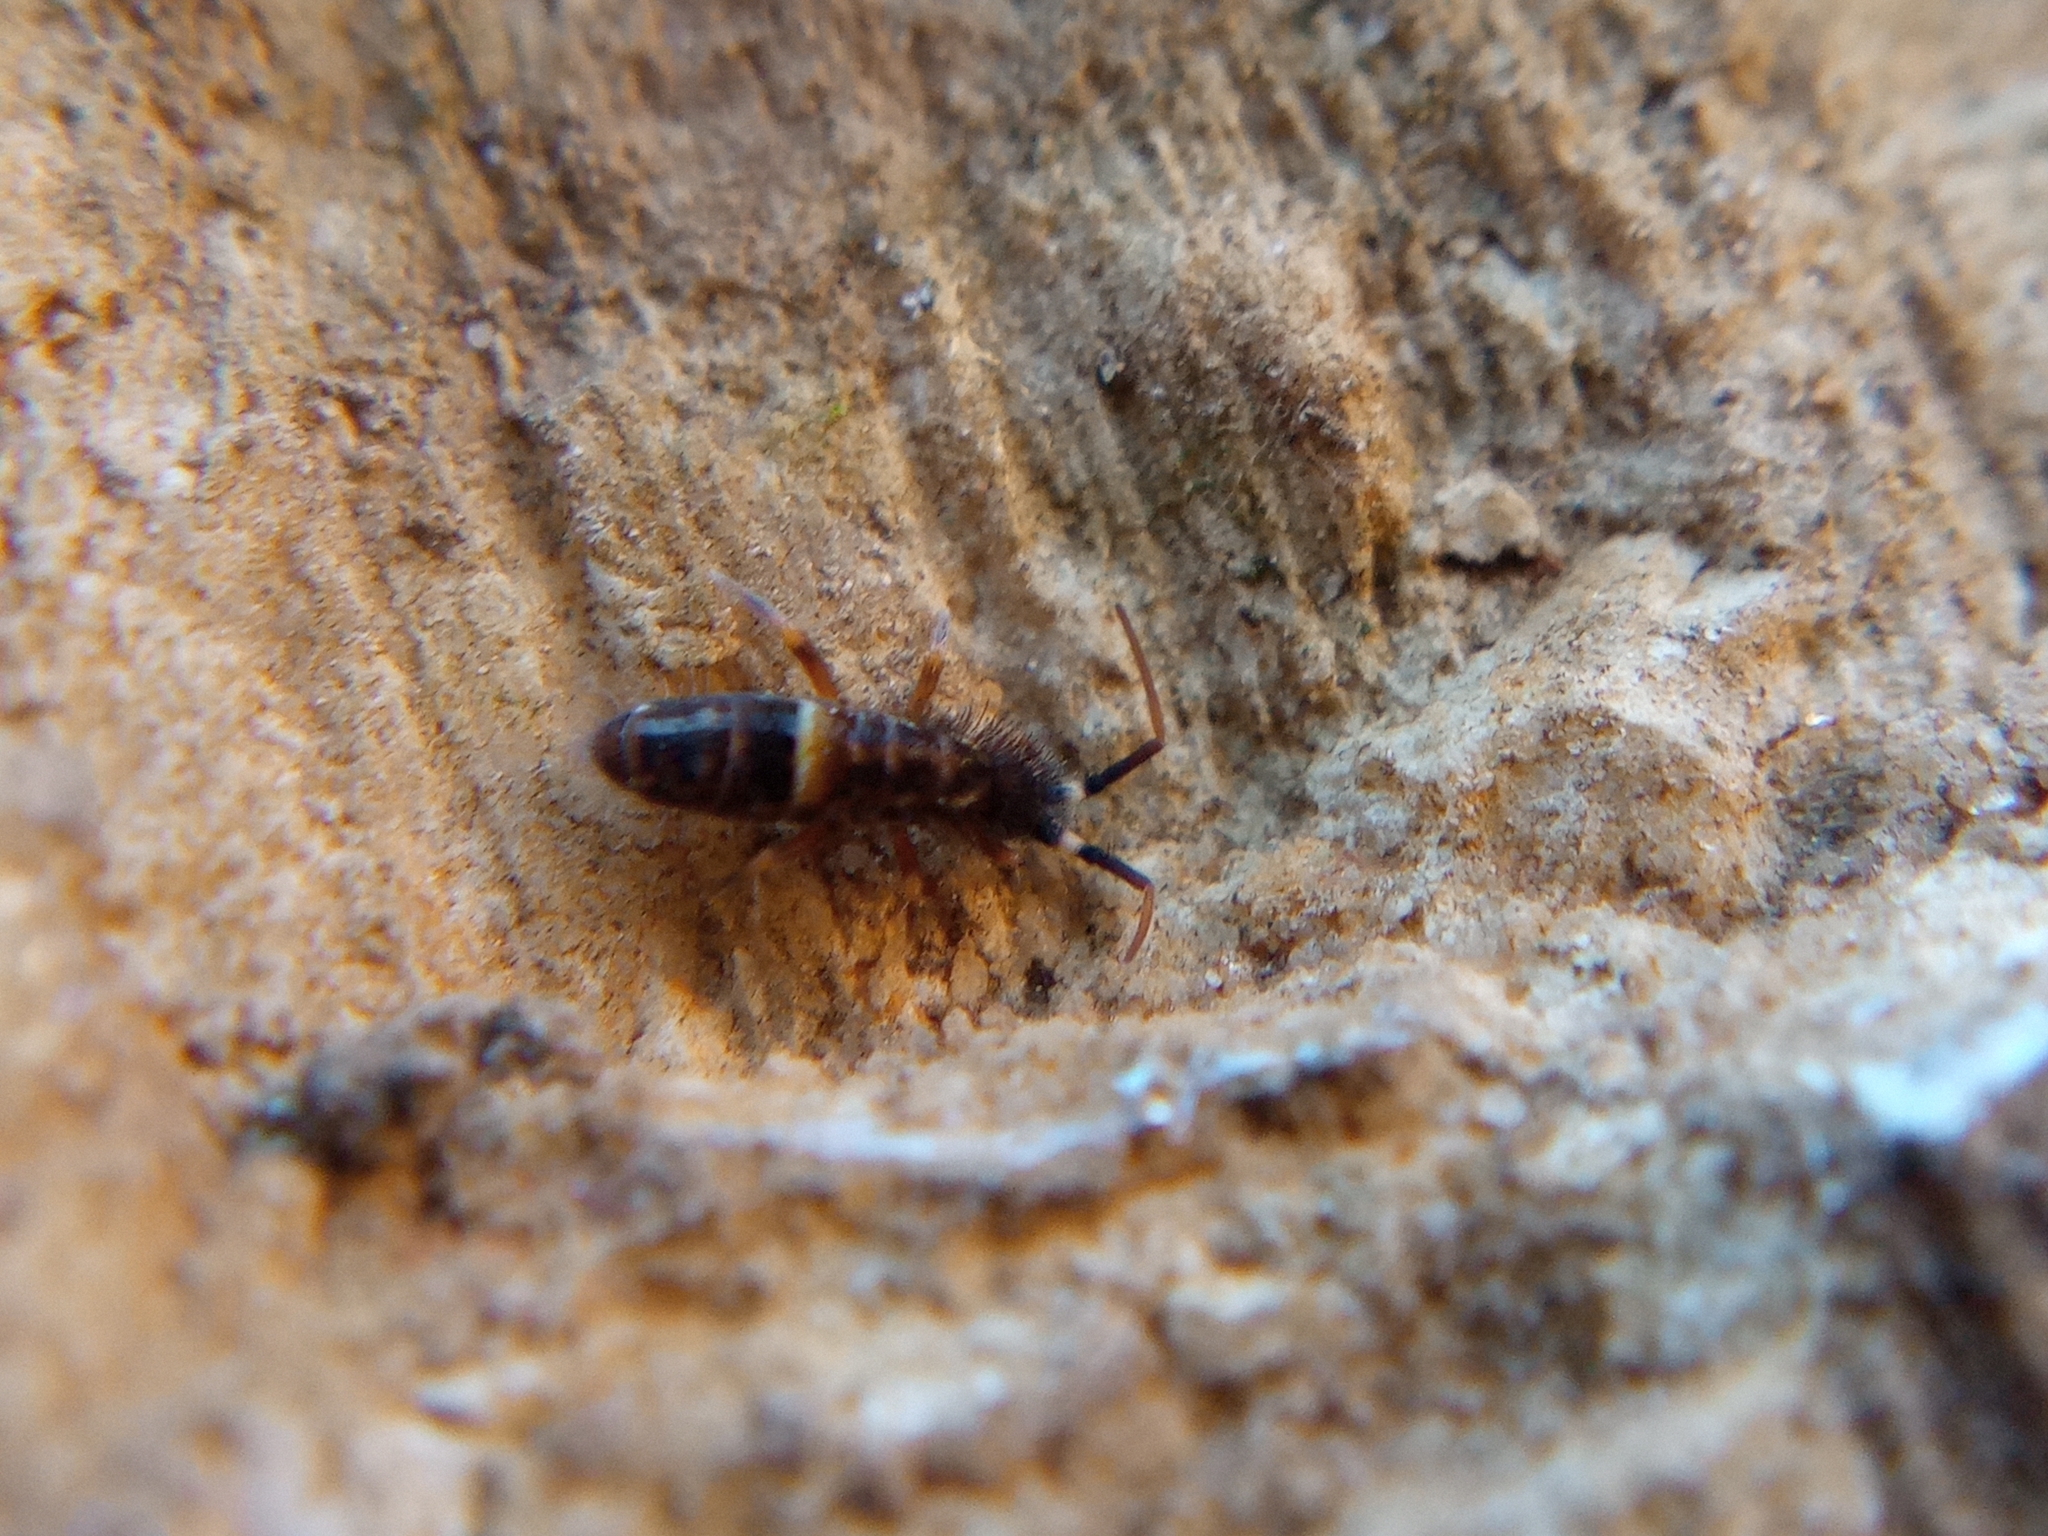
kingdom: Animalia
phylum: Arthropoda
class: Collembola
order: Entomobryomorpha
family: Orchesellidae
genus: Orchesella
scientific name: Orchesella cincta
